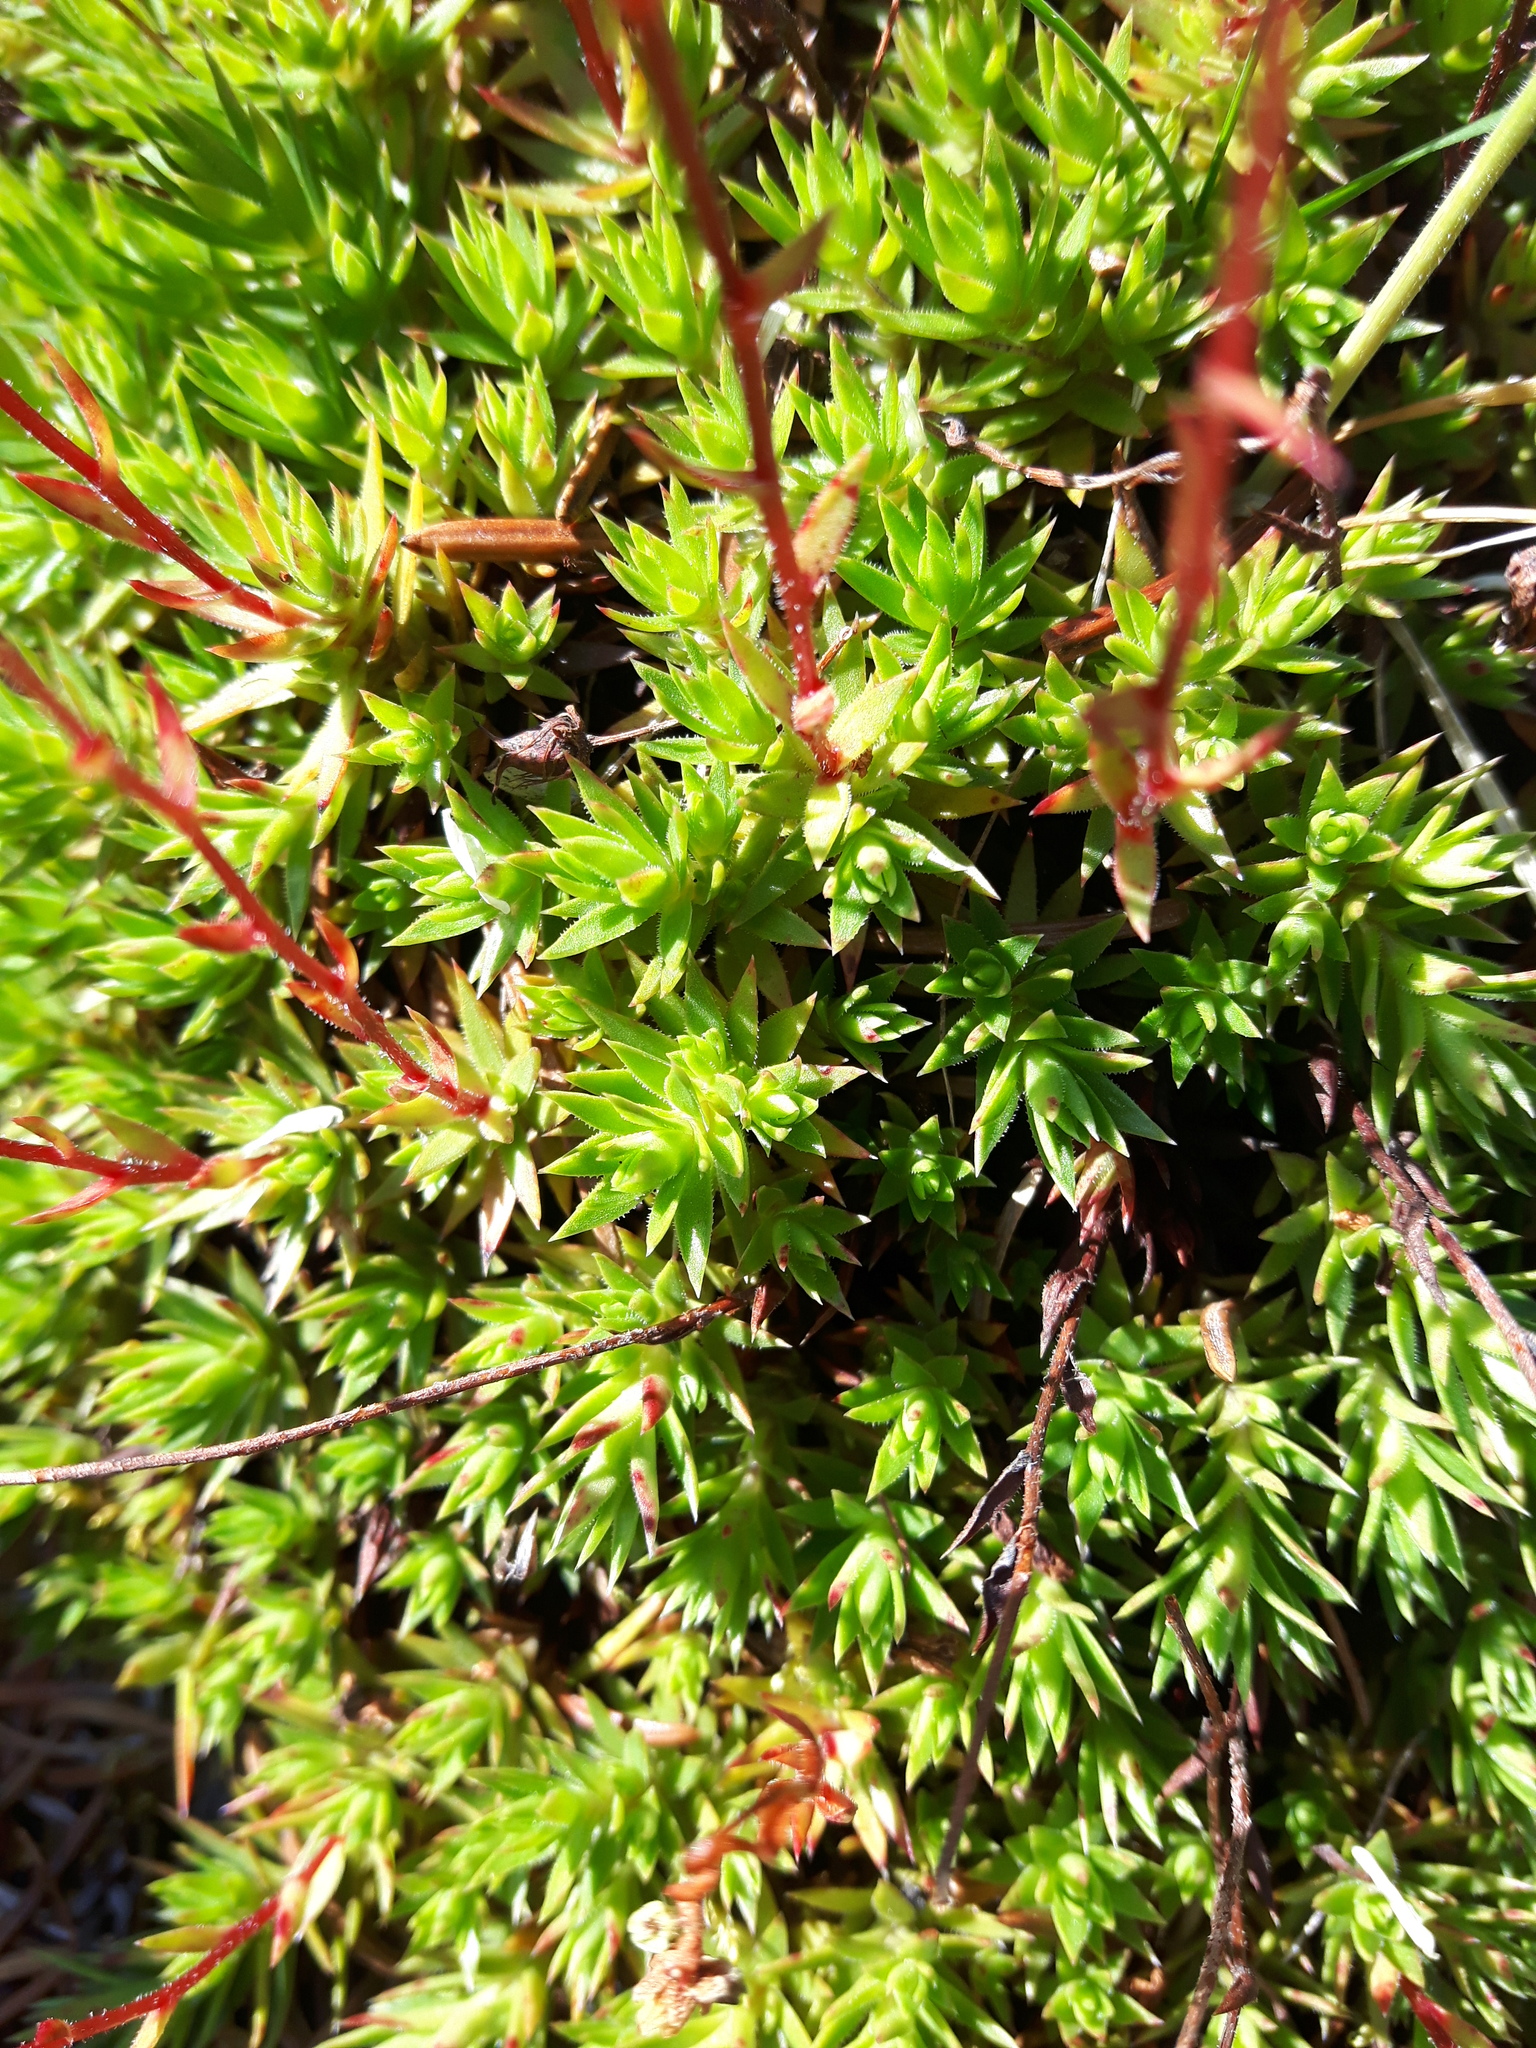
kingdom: Plantae
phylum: Tracheophyta
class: Magnoliopsida
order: Saxifragales
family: Saxifragaceae
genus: Saxifraga
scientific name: Saxifraga bronchialis
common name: Matted saxifrage
